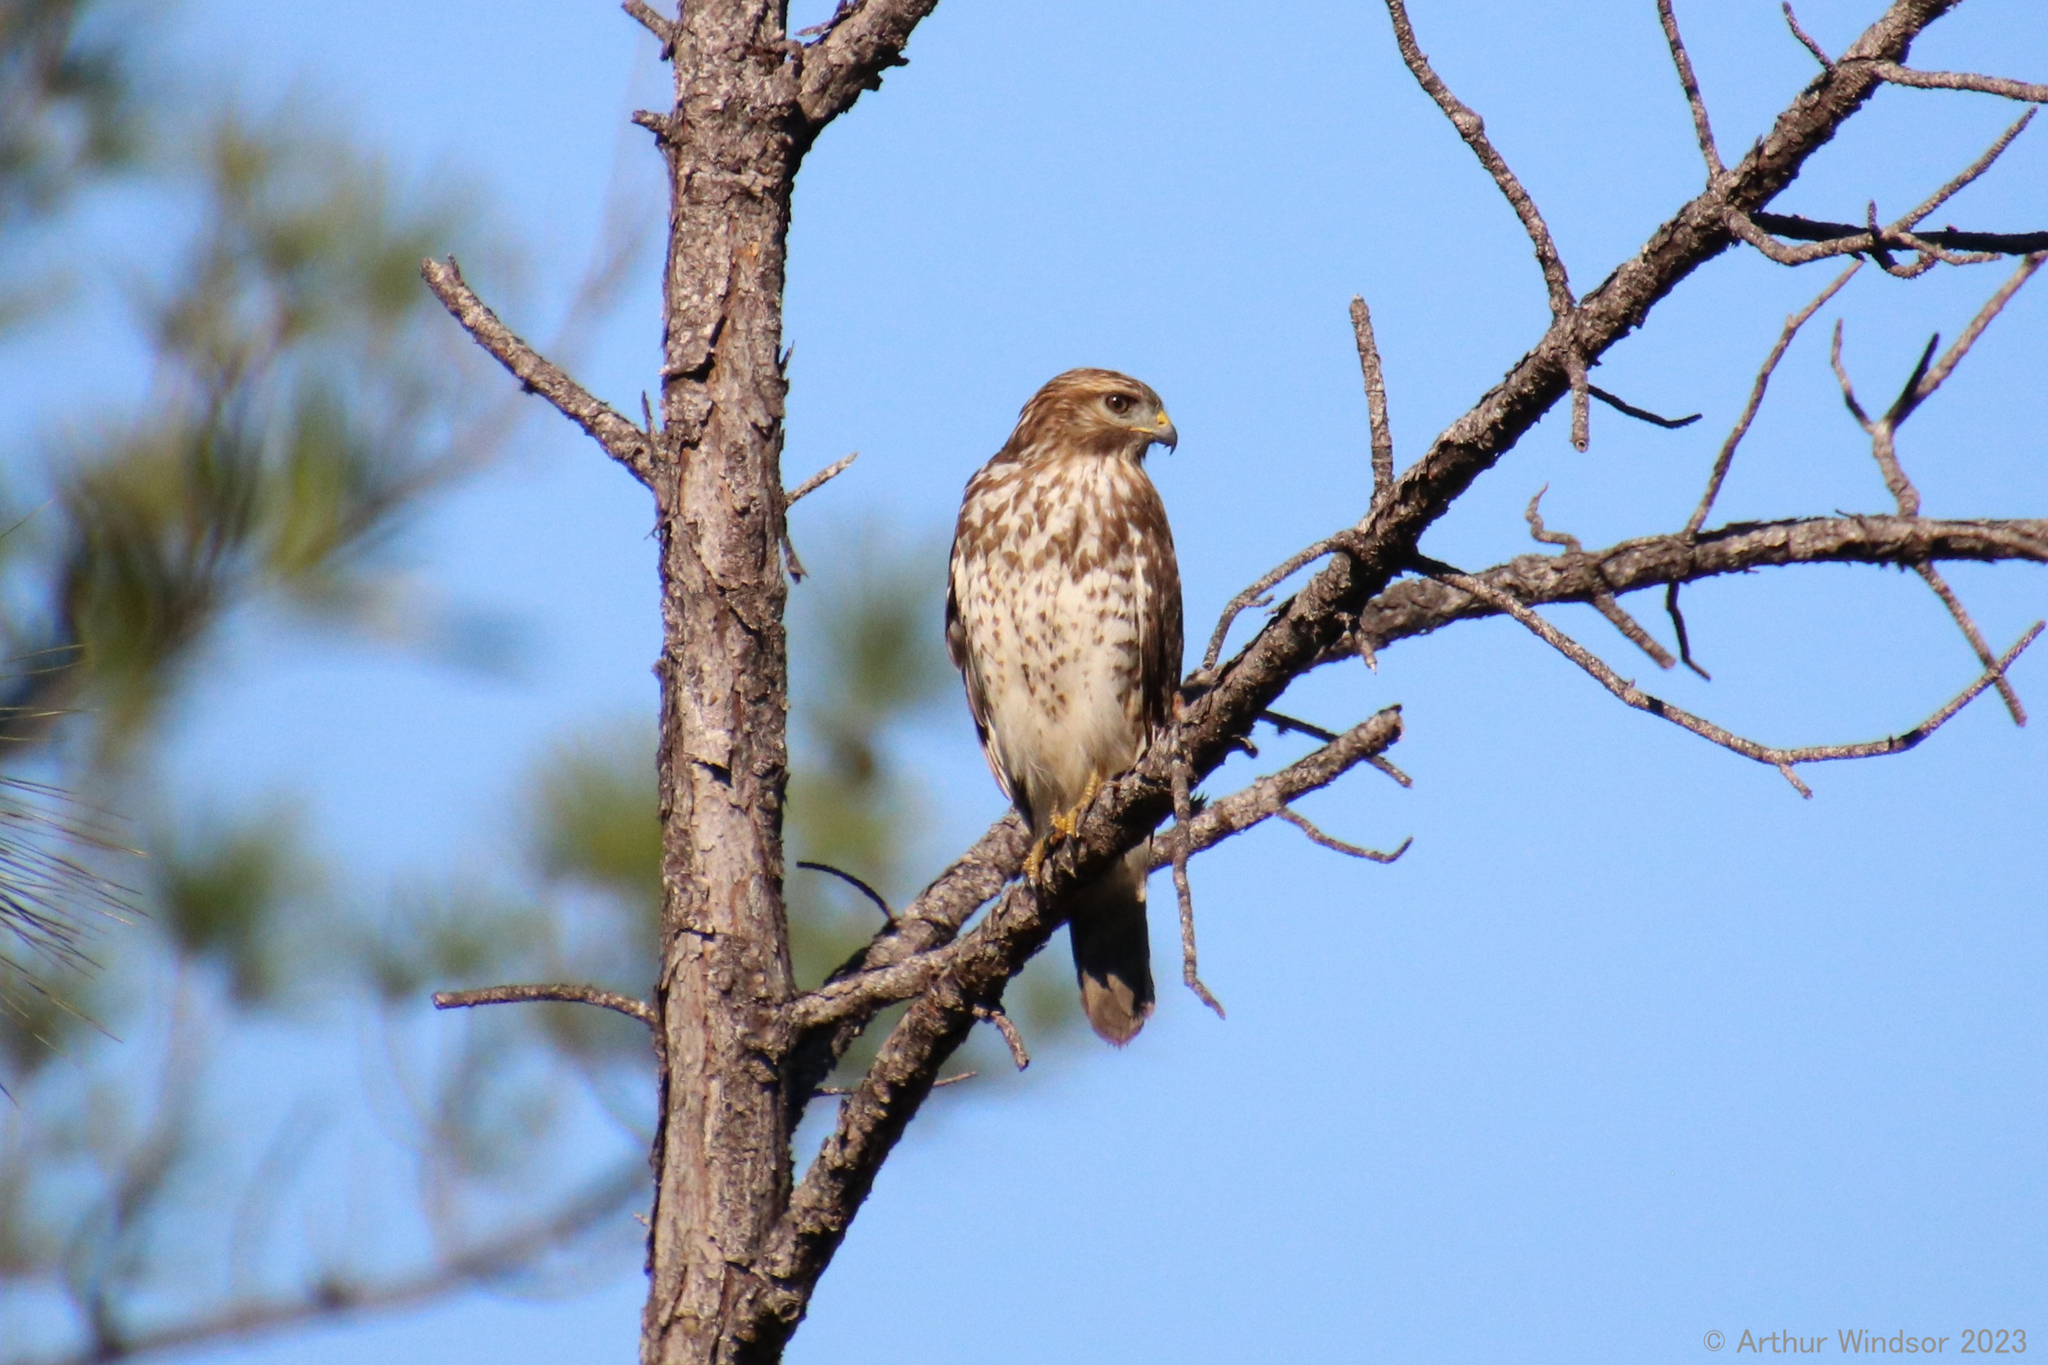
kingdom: Animalia
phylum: Chordata
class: Aves
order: Accipitriformes
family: Accipitridae
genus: Buteo
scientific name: Buteo lineatus
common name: Red-shouldered hawk
